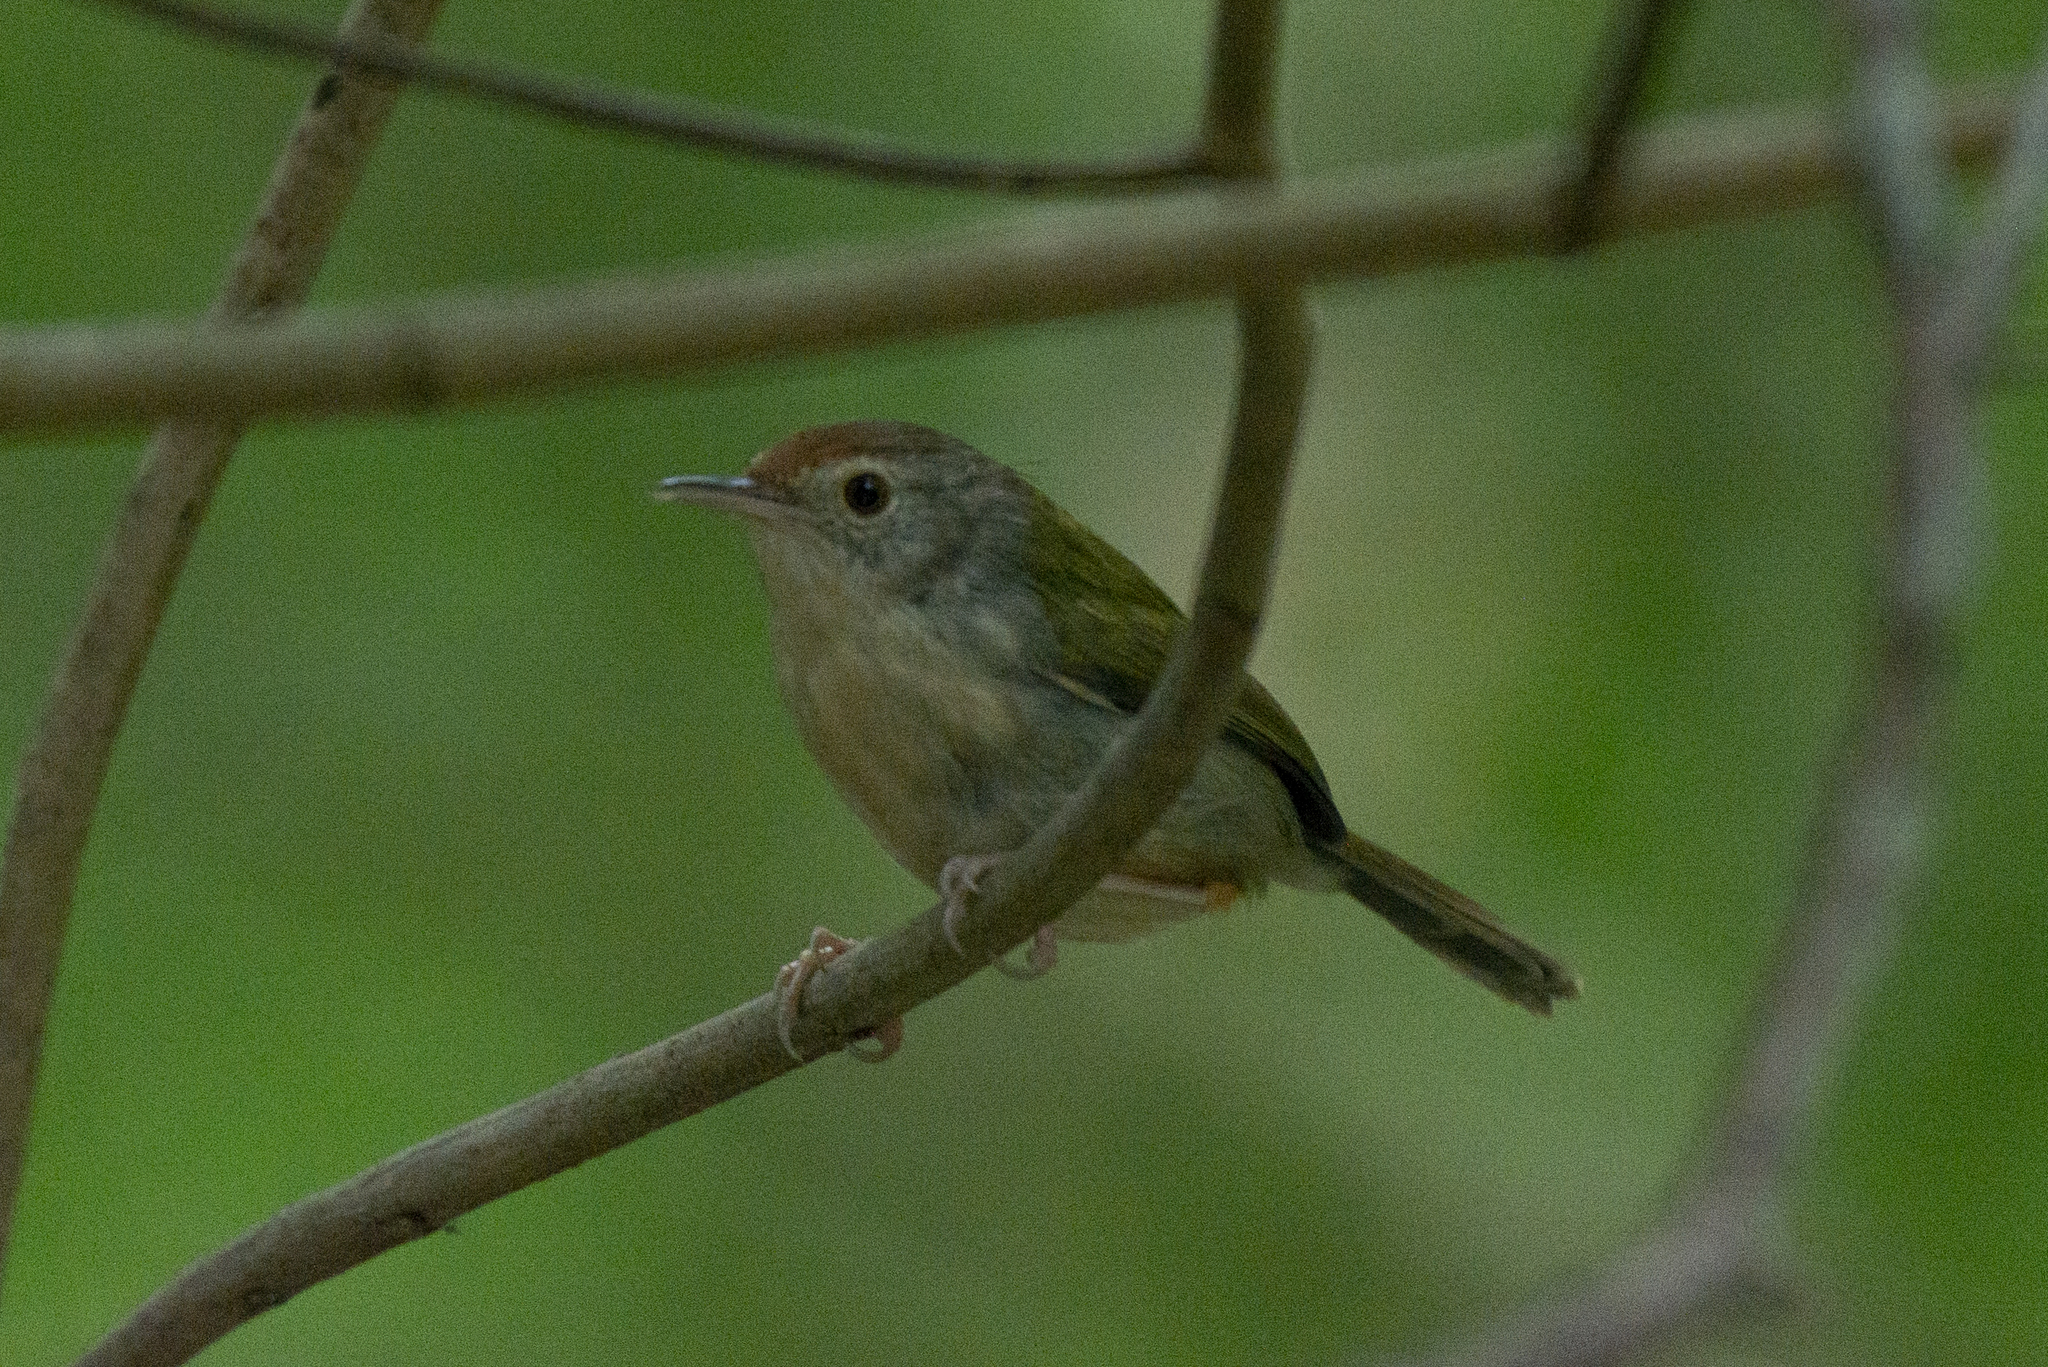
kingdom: Animalia
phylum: Chordata
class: Aves
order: Passeriformes
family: Cisticolidae
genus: Orthotomus
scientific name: Orthotomus sutorius
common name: Common tailorbird
